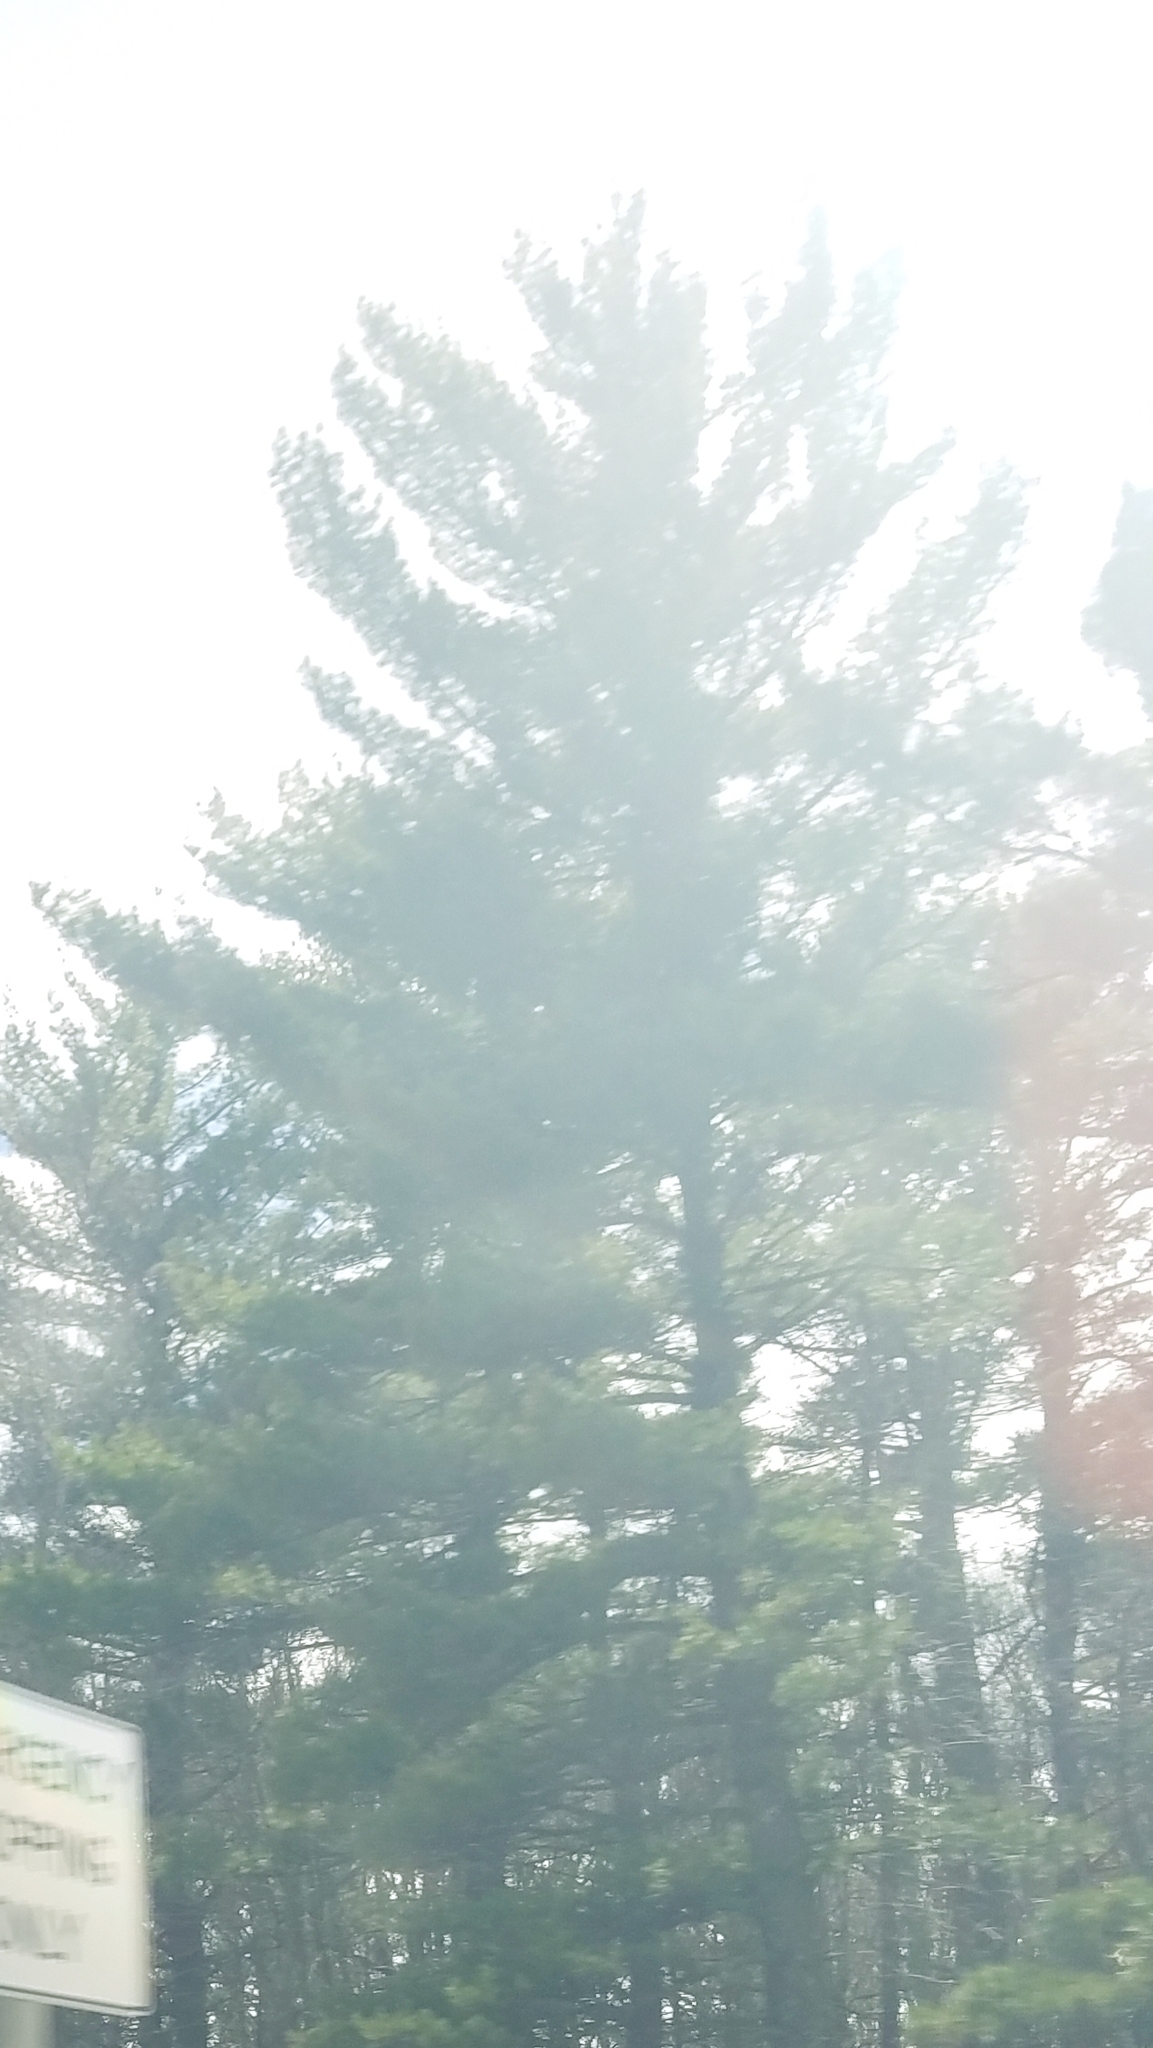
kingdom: Plantae
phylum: Tracheophyta
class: Pinopsida
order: Pinales
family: Pinaceae
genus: Pinus
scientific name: Pinus strobus
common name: Weymouth pine
